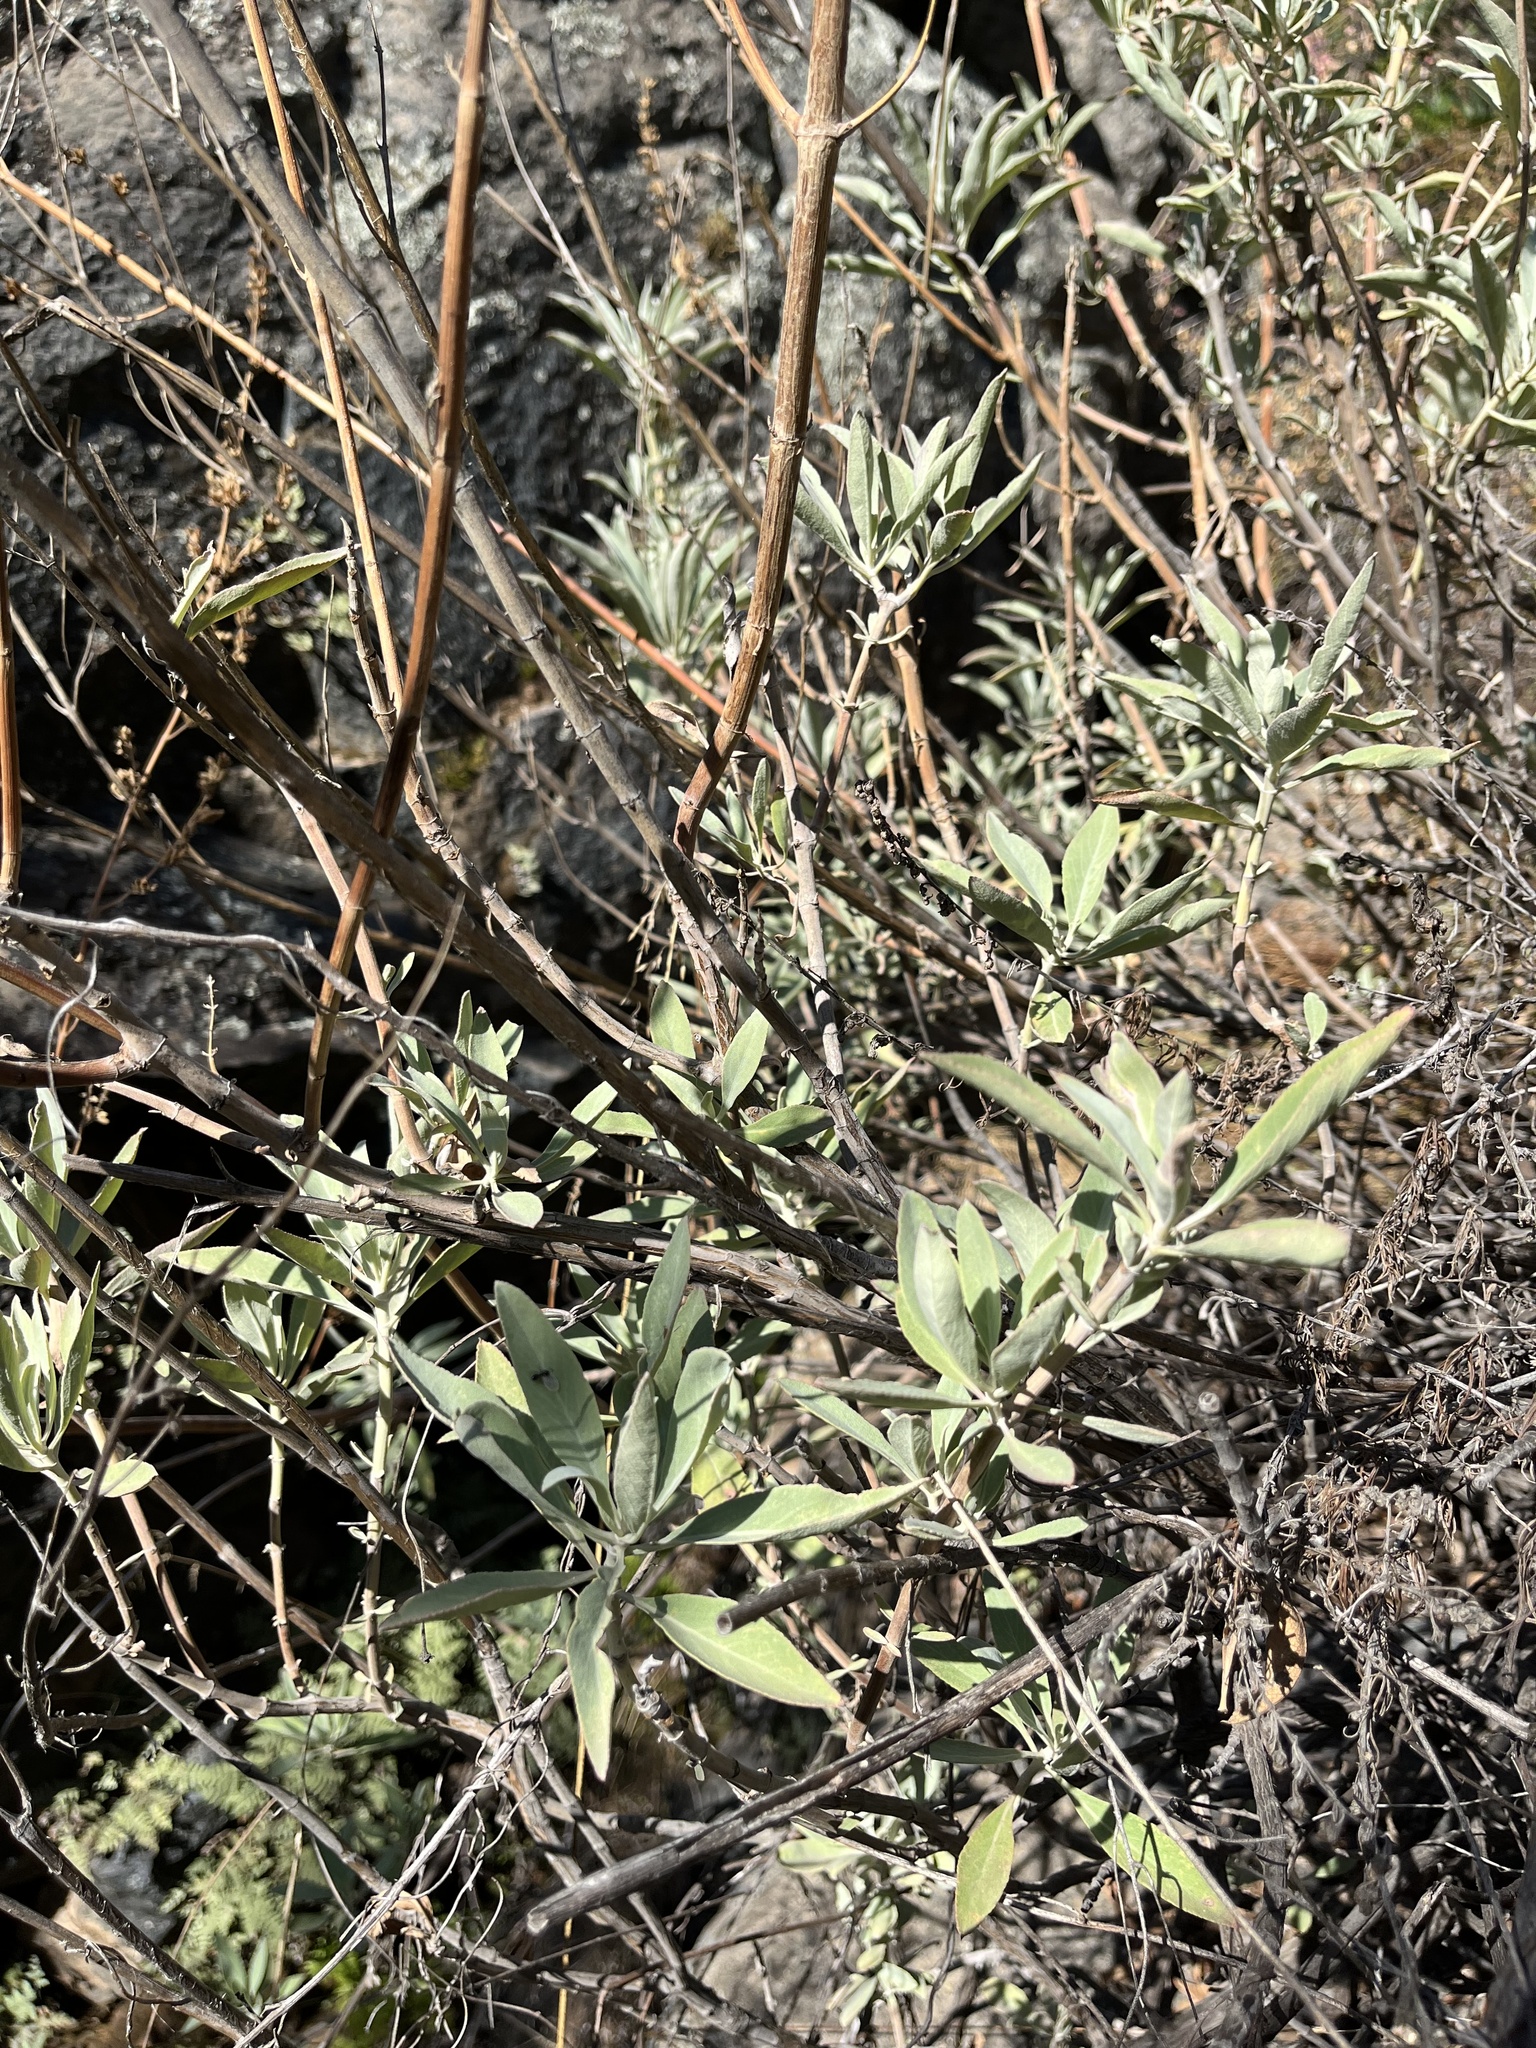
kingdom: Plantae
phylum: Tracheophyta
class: Magnoliopsida
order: Lamiales
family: Lamiaceae
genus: Salvia
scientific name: Salvia apiana
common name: White sage
